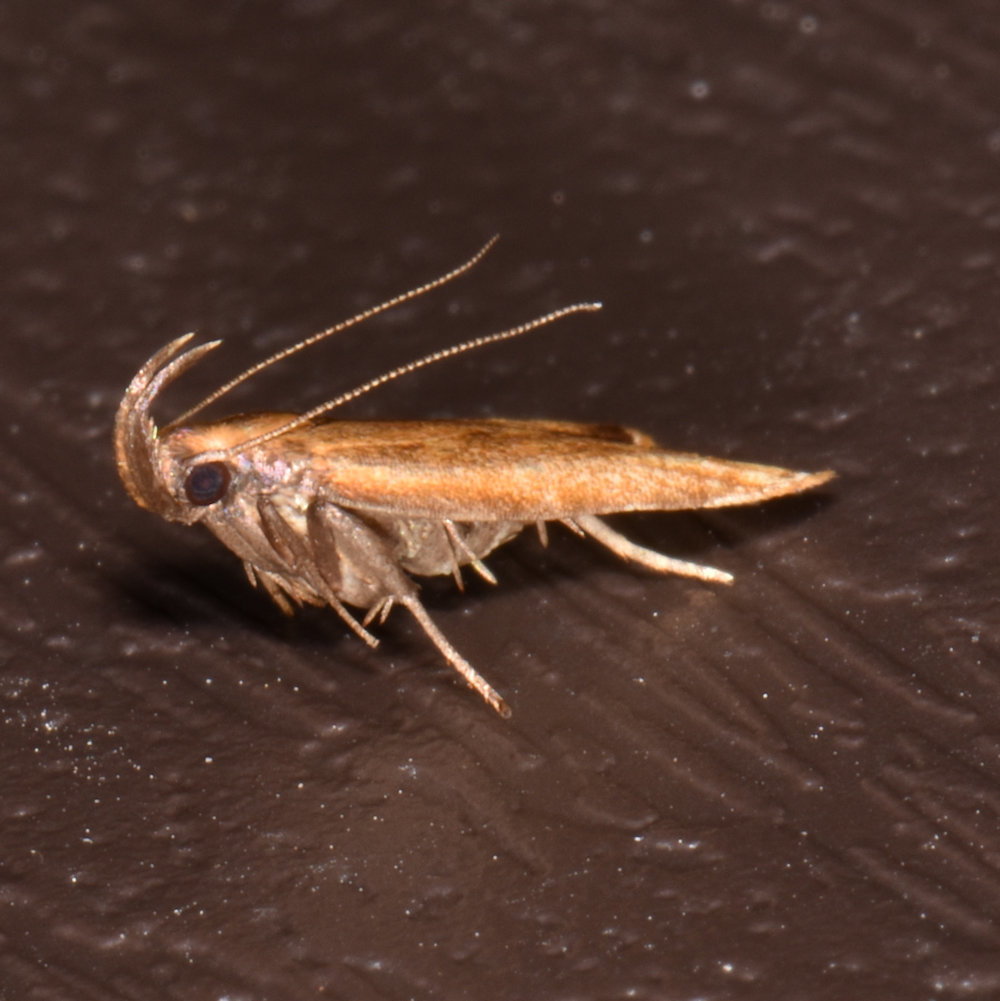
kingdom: Animalia
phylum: Arthropoda
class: Insecta
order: Lepidoptera
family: Gelechiidae
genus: Dichomeris
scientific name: Dichomeris heriguronis
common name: Black-edged dichomeris moth
